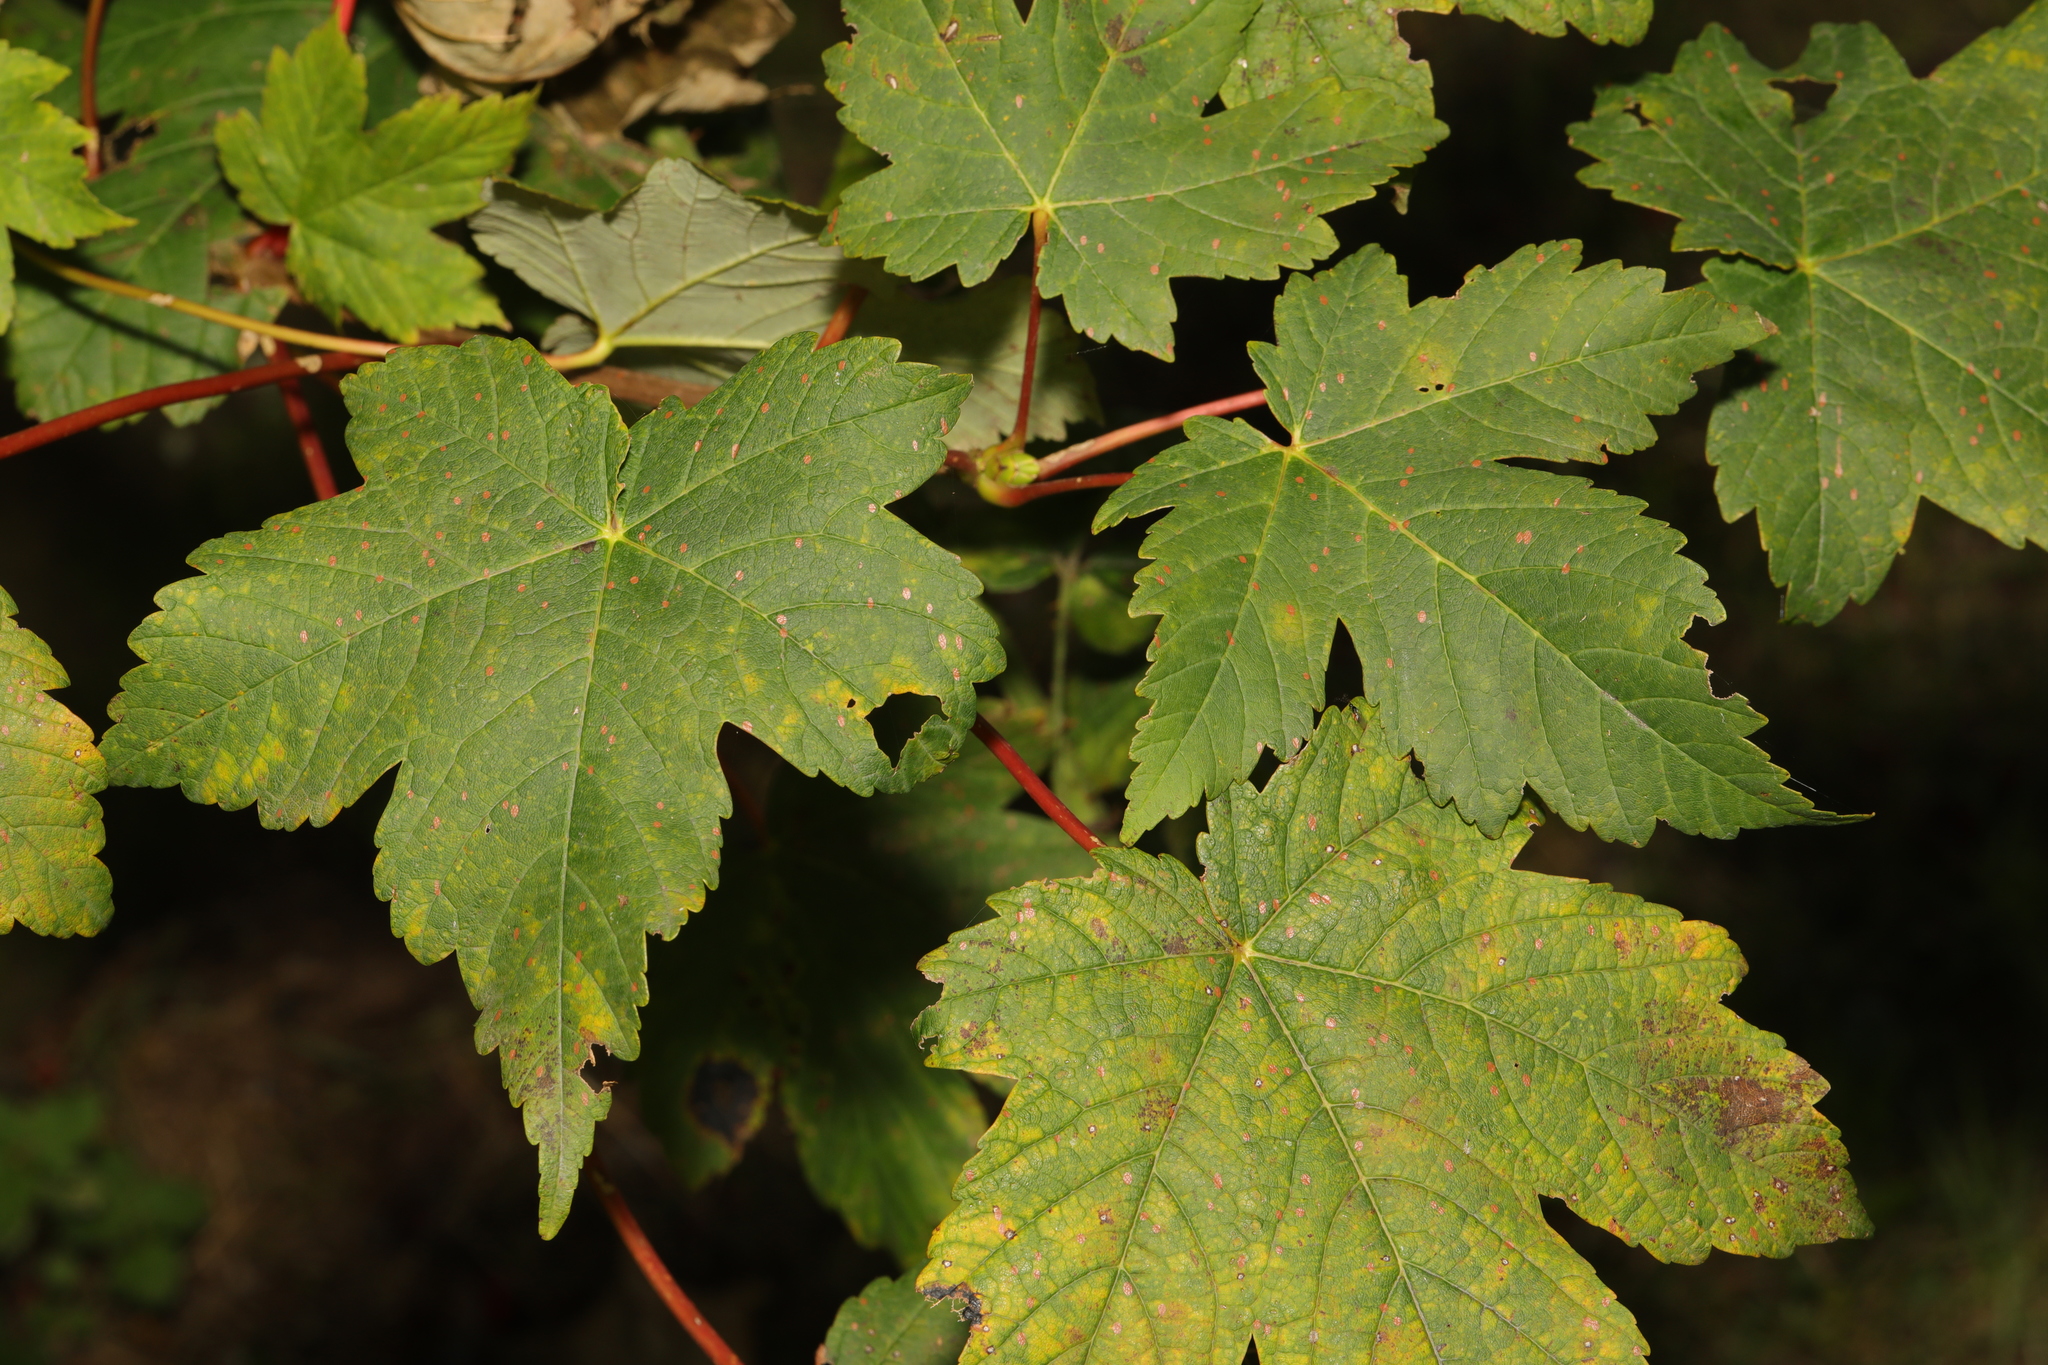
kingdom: Plantae
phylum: Tracheophyta
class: Magnoliopsida
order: Sapindales
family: Sapindaceae
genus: Acer
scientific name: Acer pseudoplatanus
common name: Sycamore
